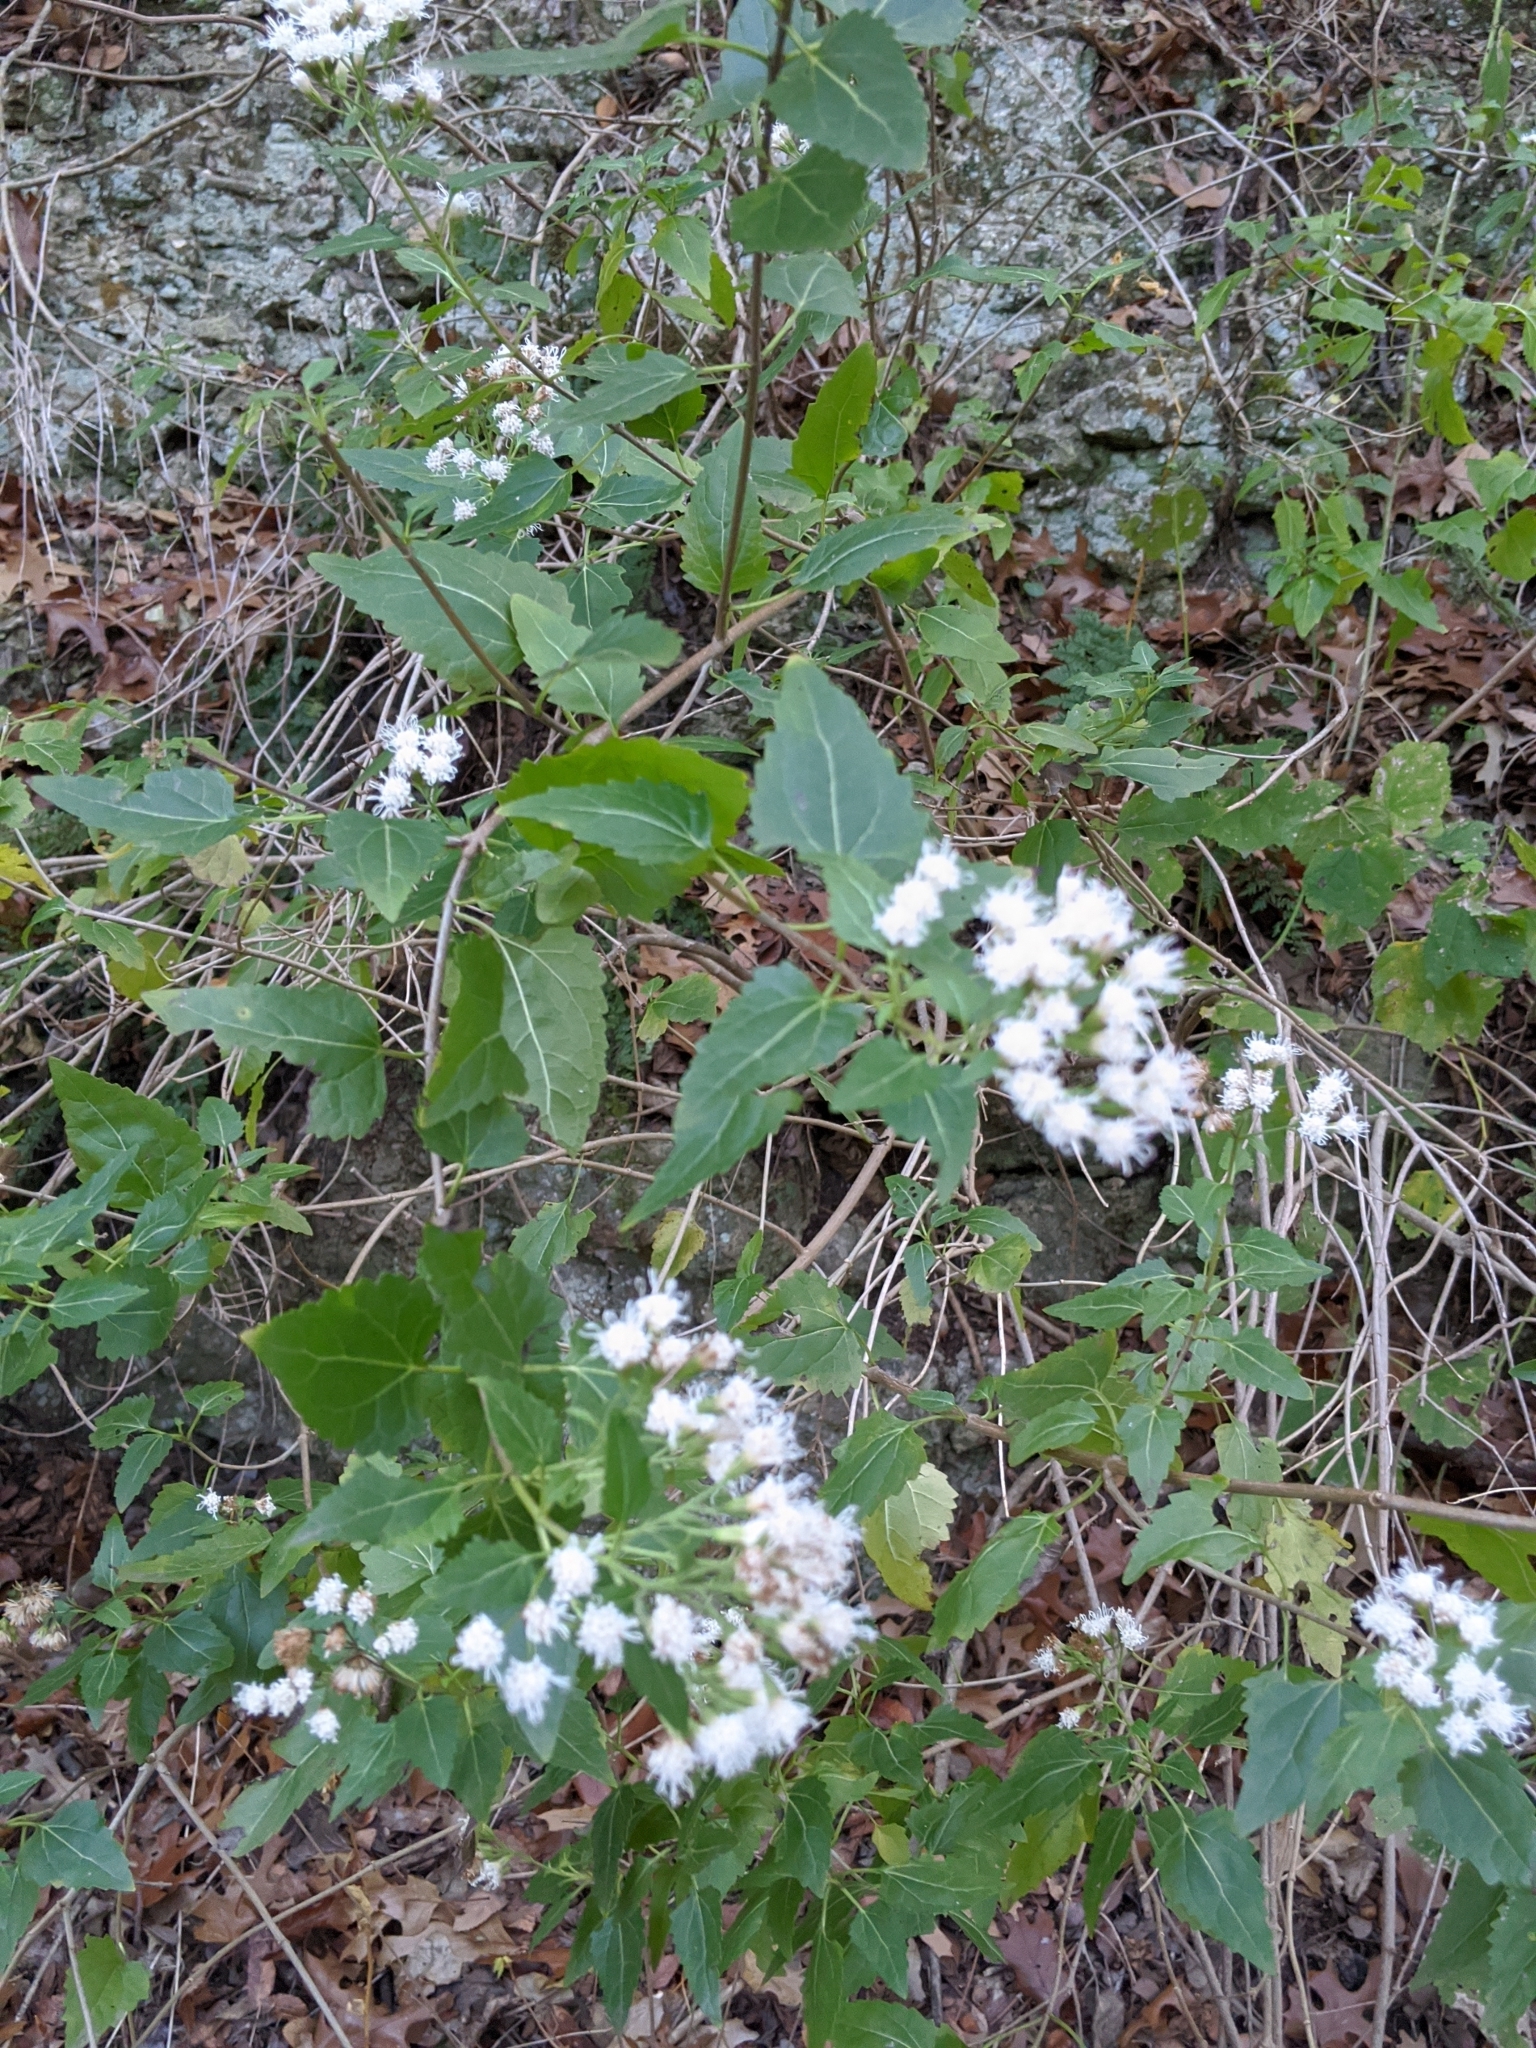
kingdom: Plantae
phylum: Tracheophyta
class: Magnoliopsida
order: Asterales
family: Asteraceae
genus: Ageratina
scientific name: Ageratina havanensis
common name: Havana snakeroot
